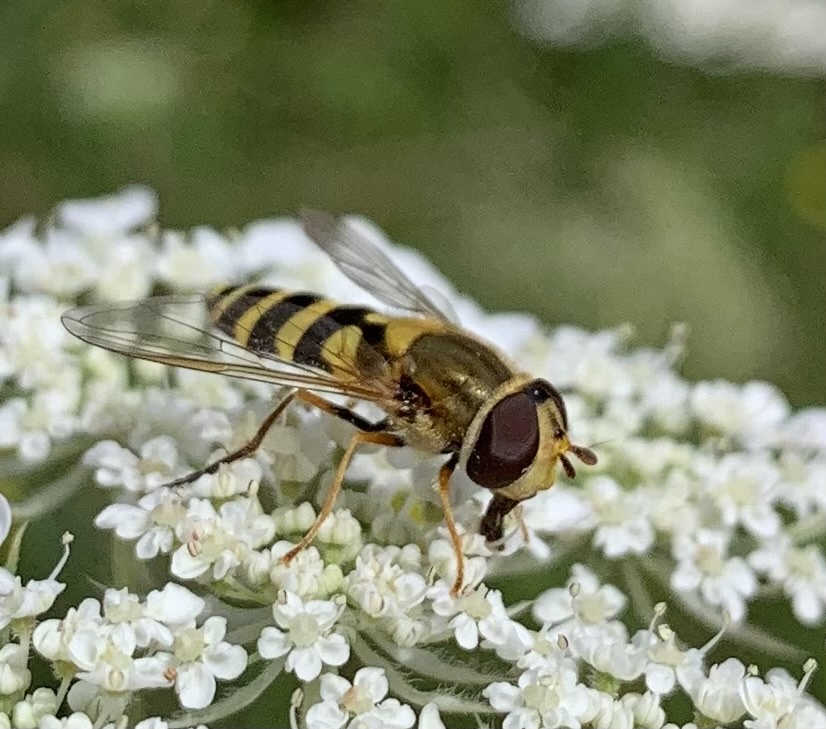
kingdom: Animalia
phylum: Arthropoda
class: Insecta
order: Diptera
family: Syrphidae
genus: Syrphus
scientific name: Syrphus torvus
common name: Hairy-eyed flower fly
